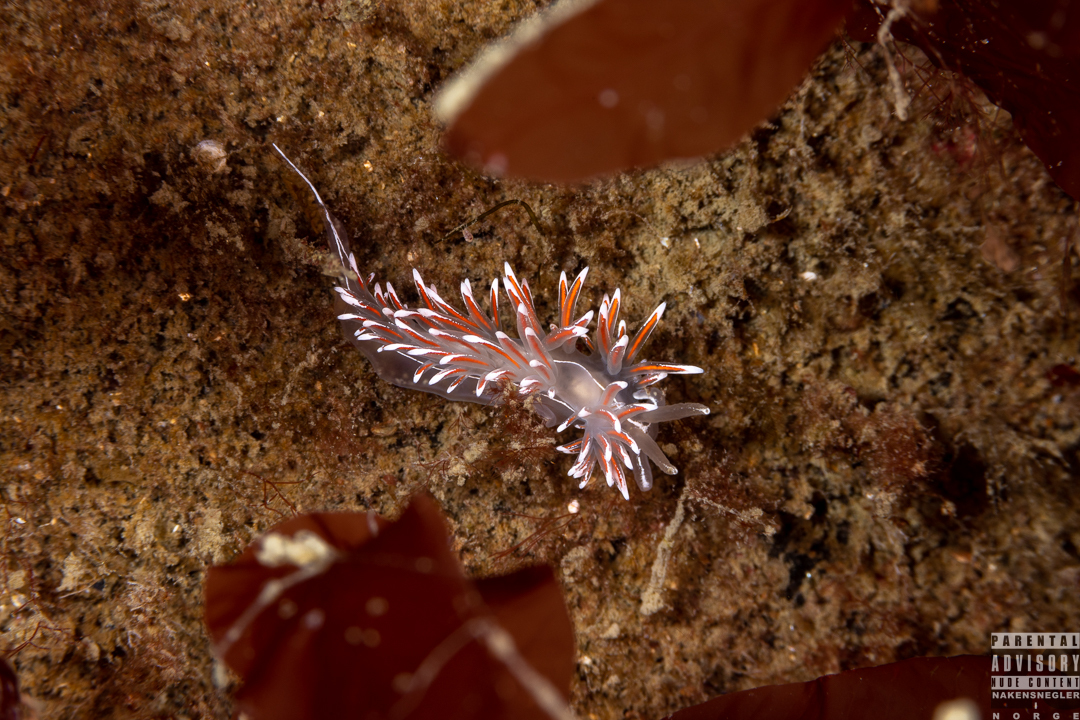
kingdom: Animalia
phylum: Mollusca
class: Gastropoda
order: Nudibranchia
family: Coryphellidae
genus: Coryphella
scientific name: Coryphella lineata
